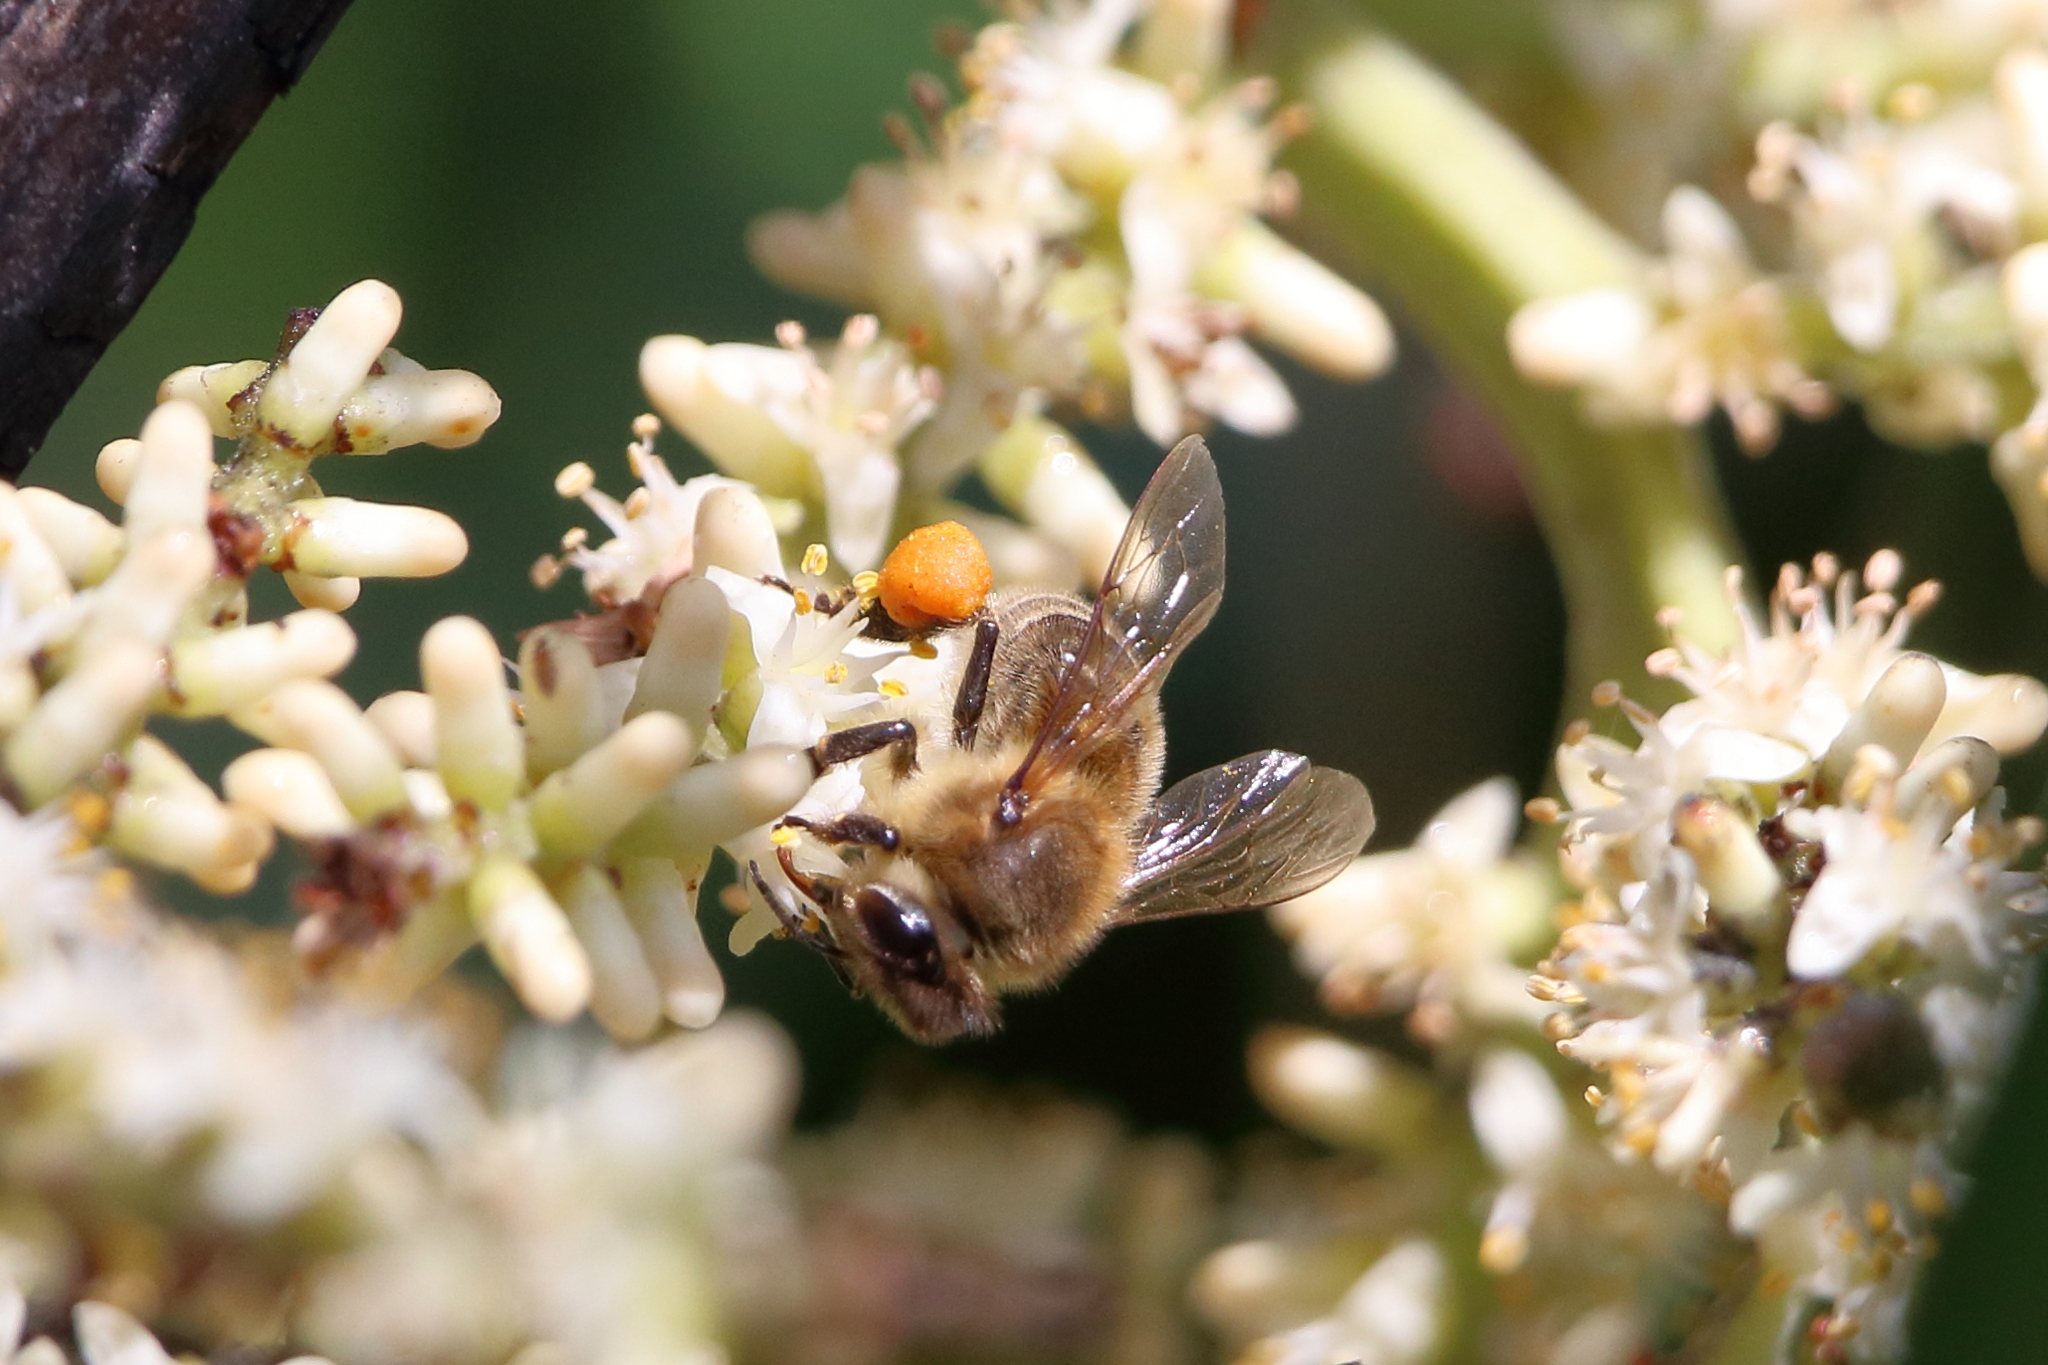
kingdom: Animalia
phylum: Arthropoda
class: Insecta
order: Hymenoptera
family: Apidae
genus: Apis
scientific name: Apis mellifera
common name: Honey bee
